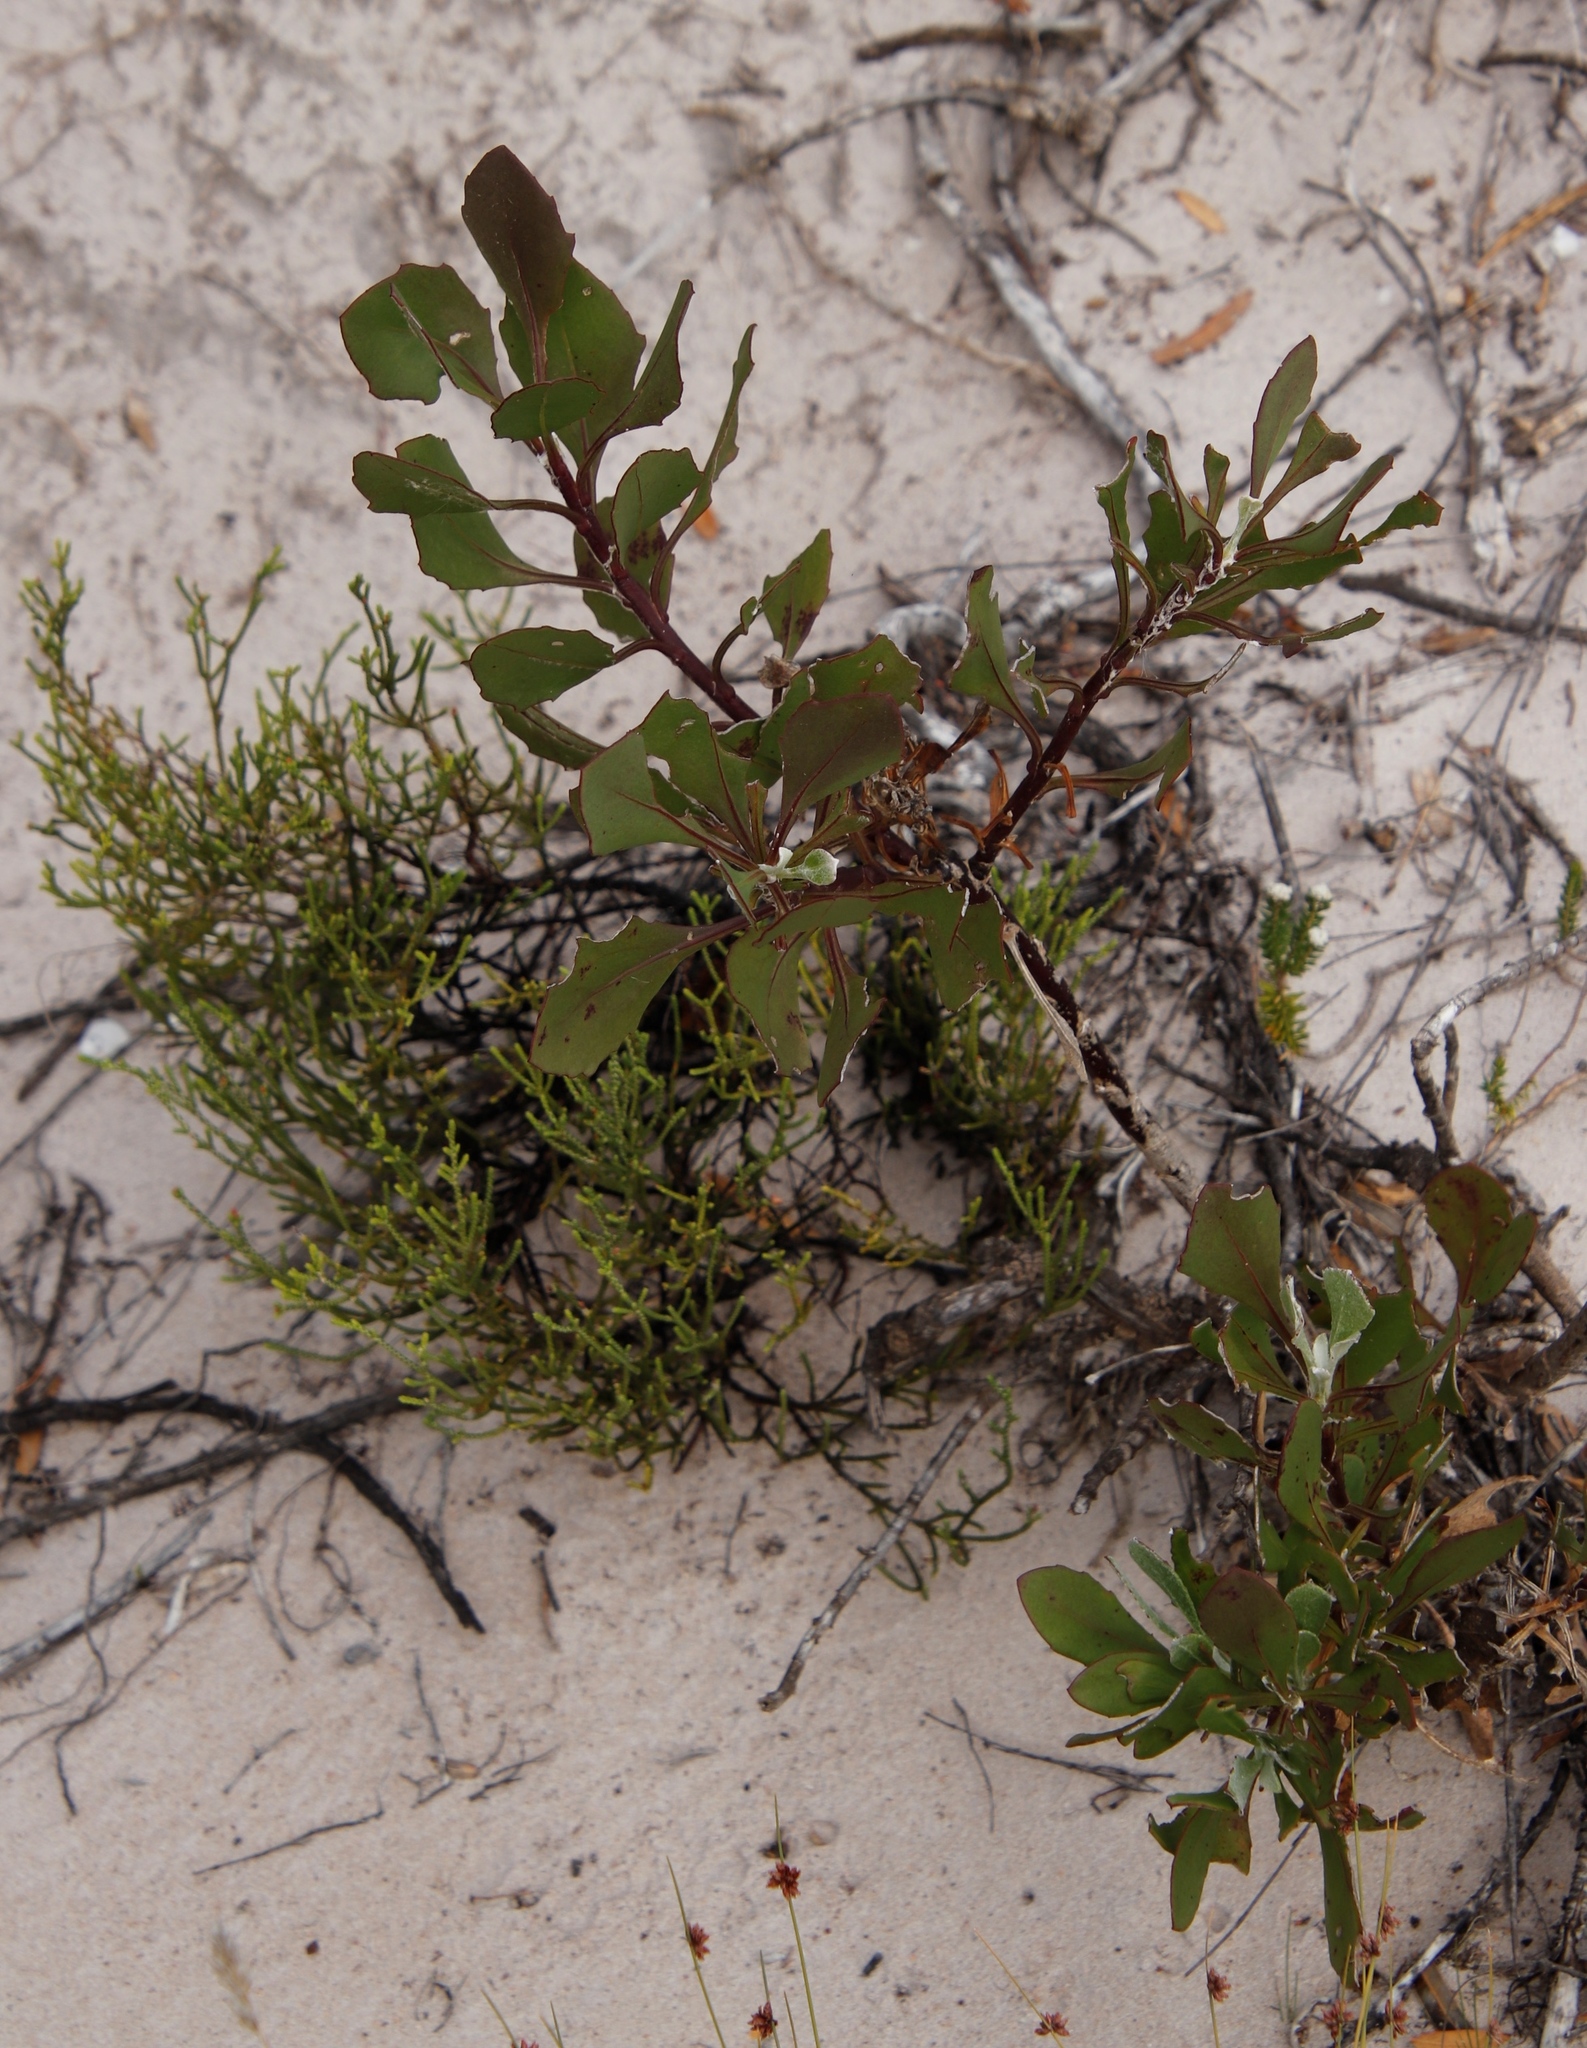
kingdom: Plantae
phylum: Tracheophyta
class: Magnoliopsida
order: Asterales
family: Asteraceae
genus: Osteospermum
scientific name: Osteospermum moniliferum
